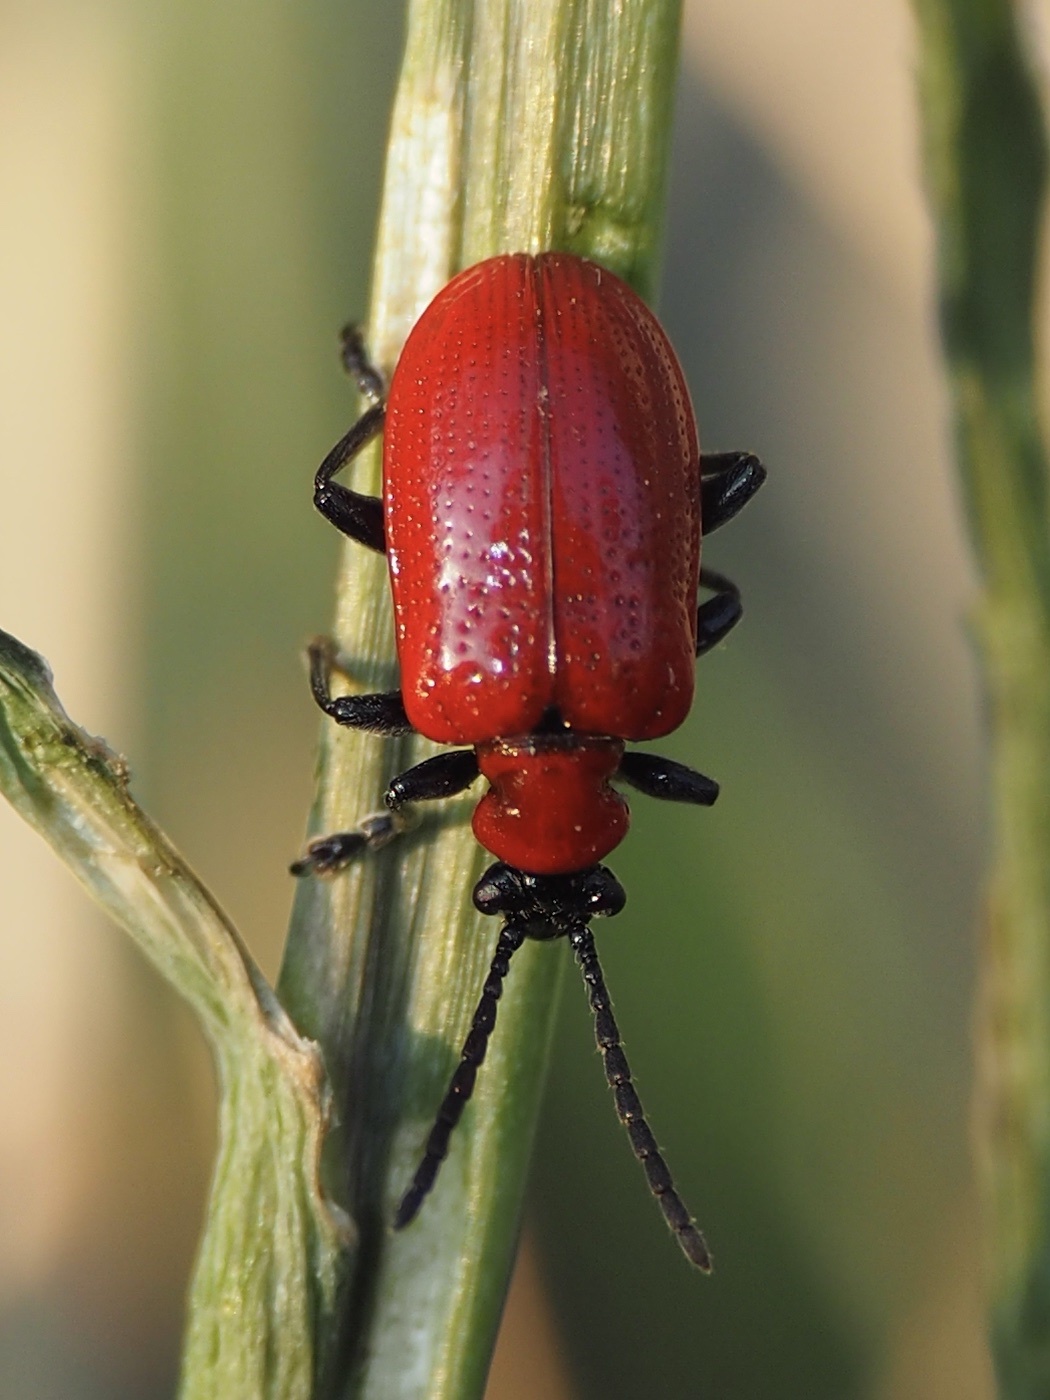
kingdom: Animalia
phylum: Arthropoda
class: Insecta
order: Coleoptera
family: Chrysomelidae
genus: Lilioceris
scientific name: Lilioceris lilii
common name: Lily beetle
